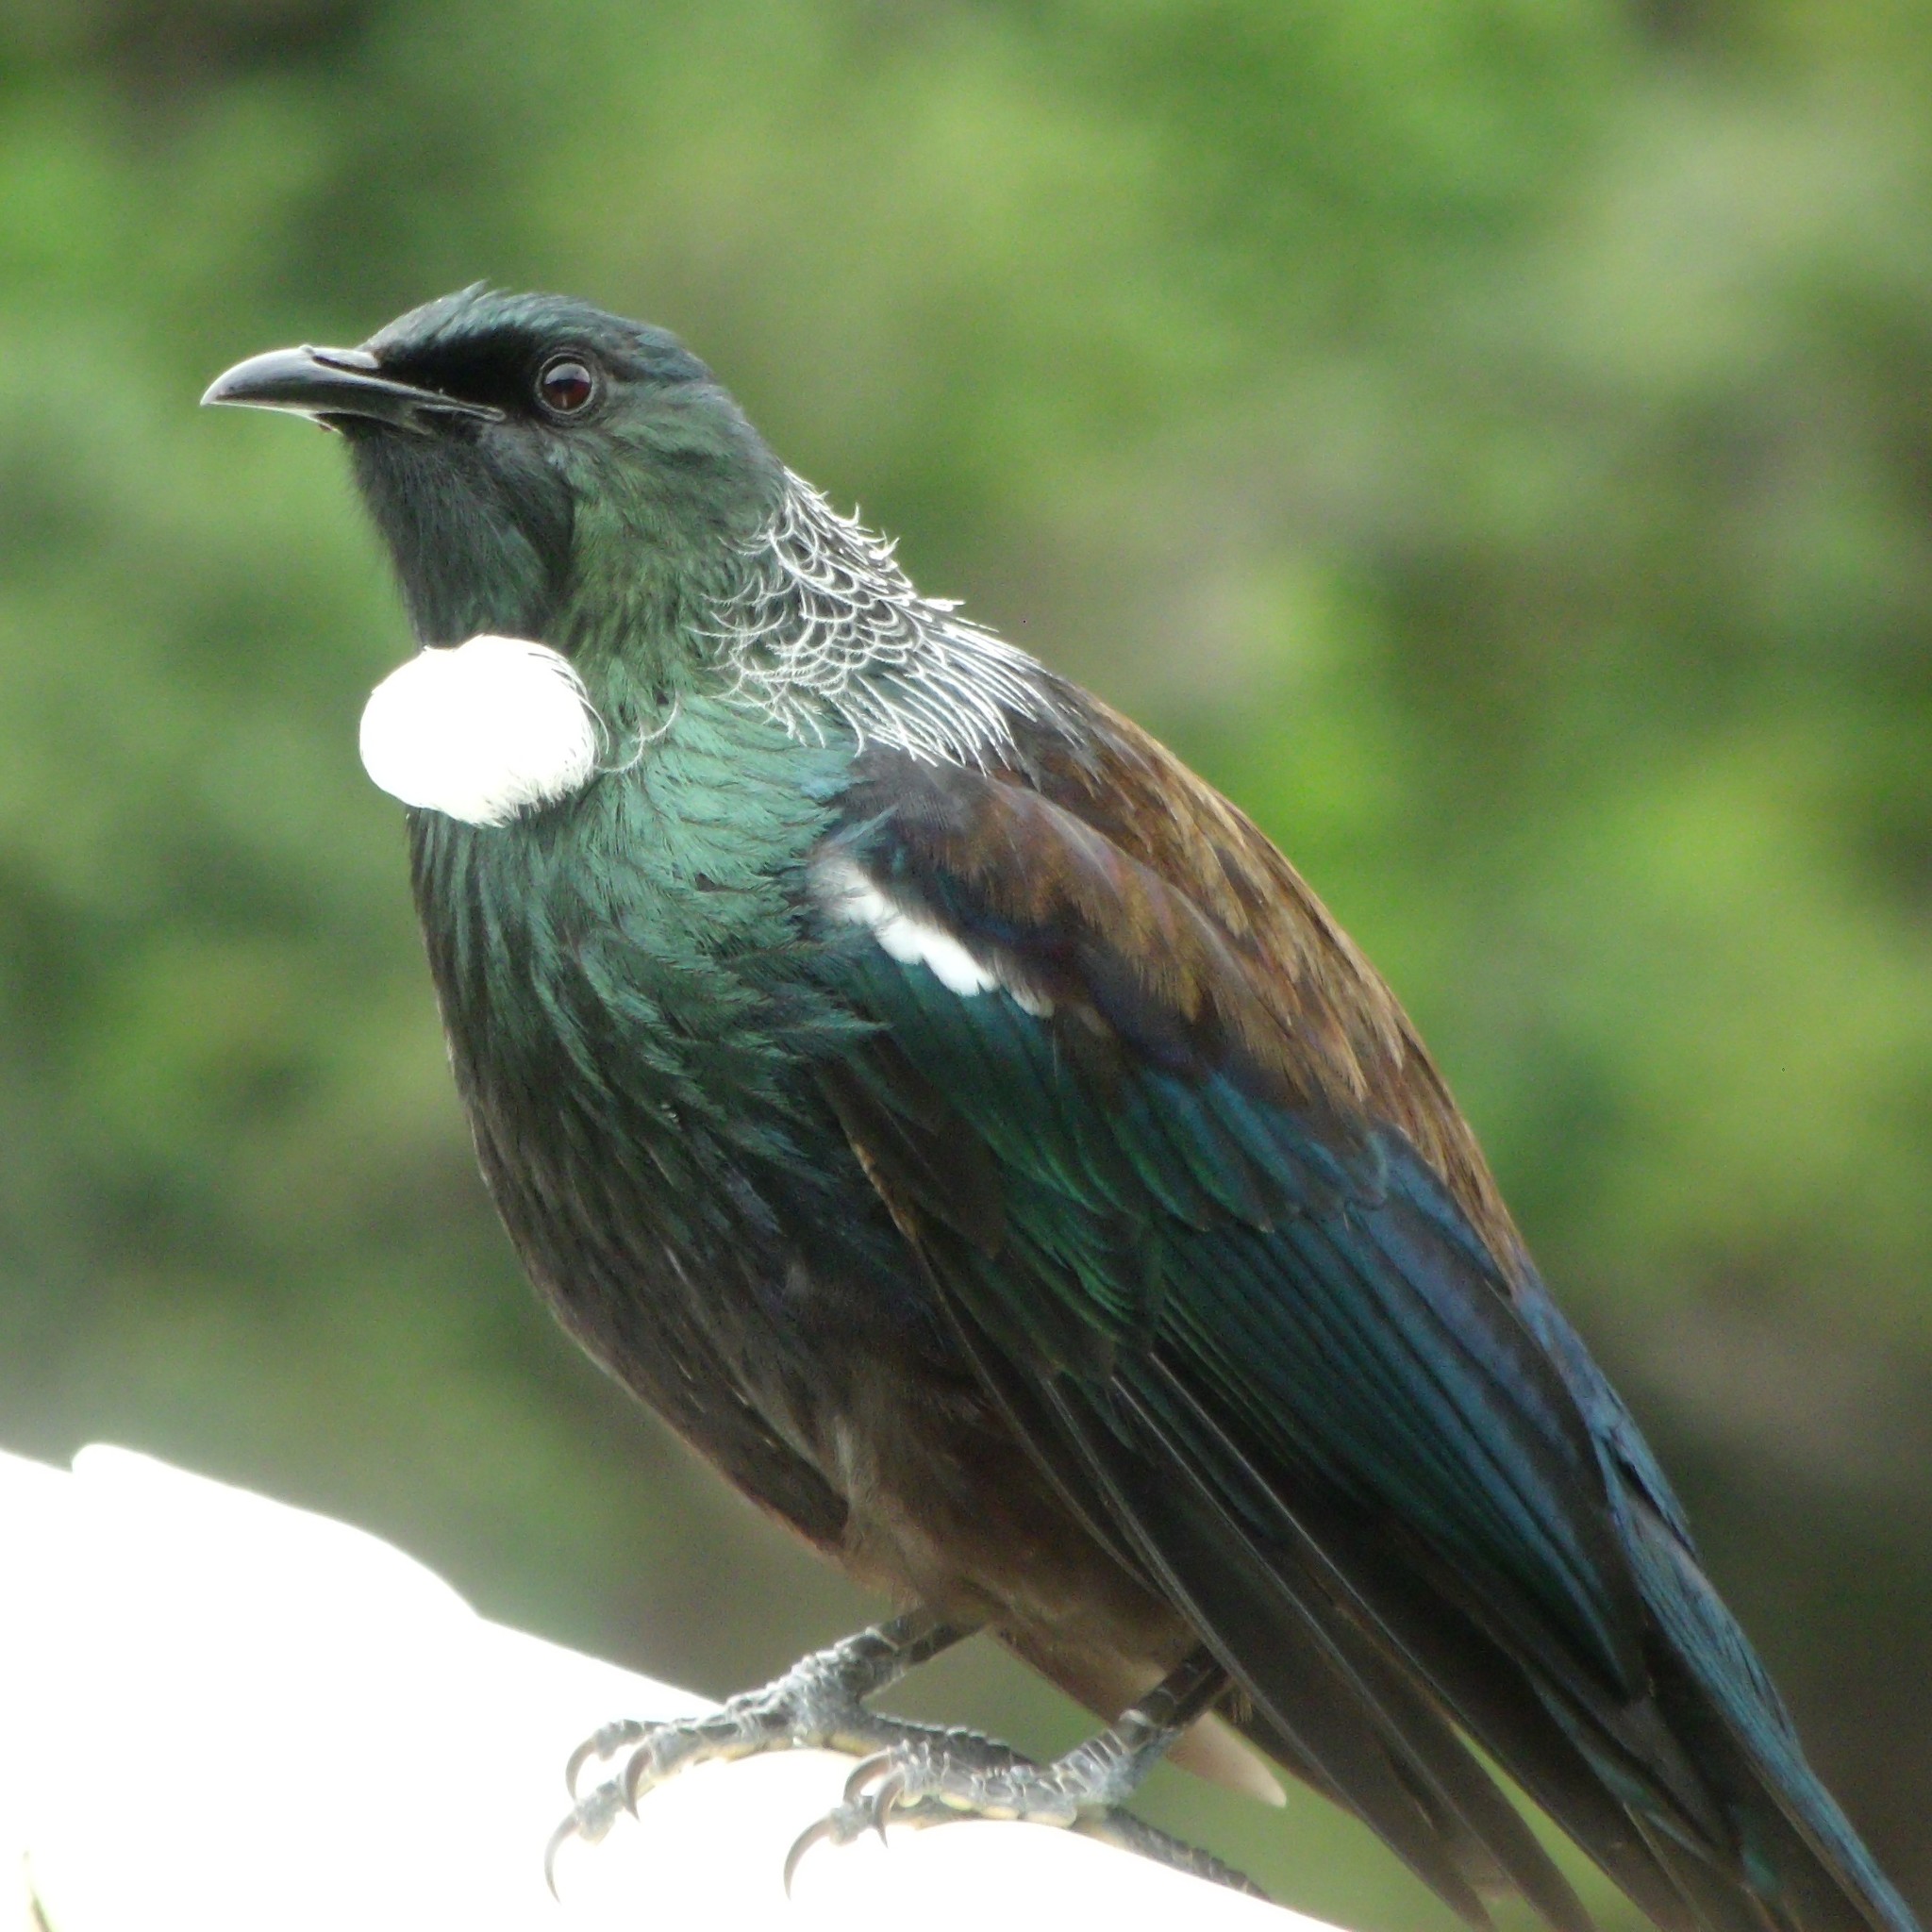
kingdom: Animalia
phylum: Chordata
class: Aves
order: Passeriformes
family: Meliphagidae
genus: Prosthemadera
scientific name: Prosthemadera novaeseelandiae
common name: Tui
